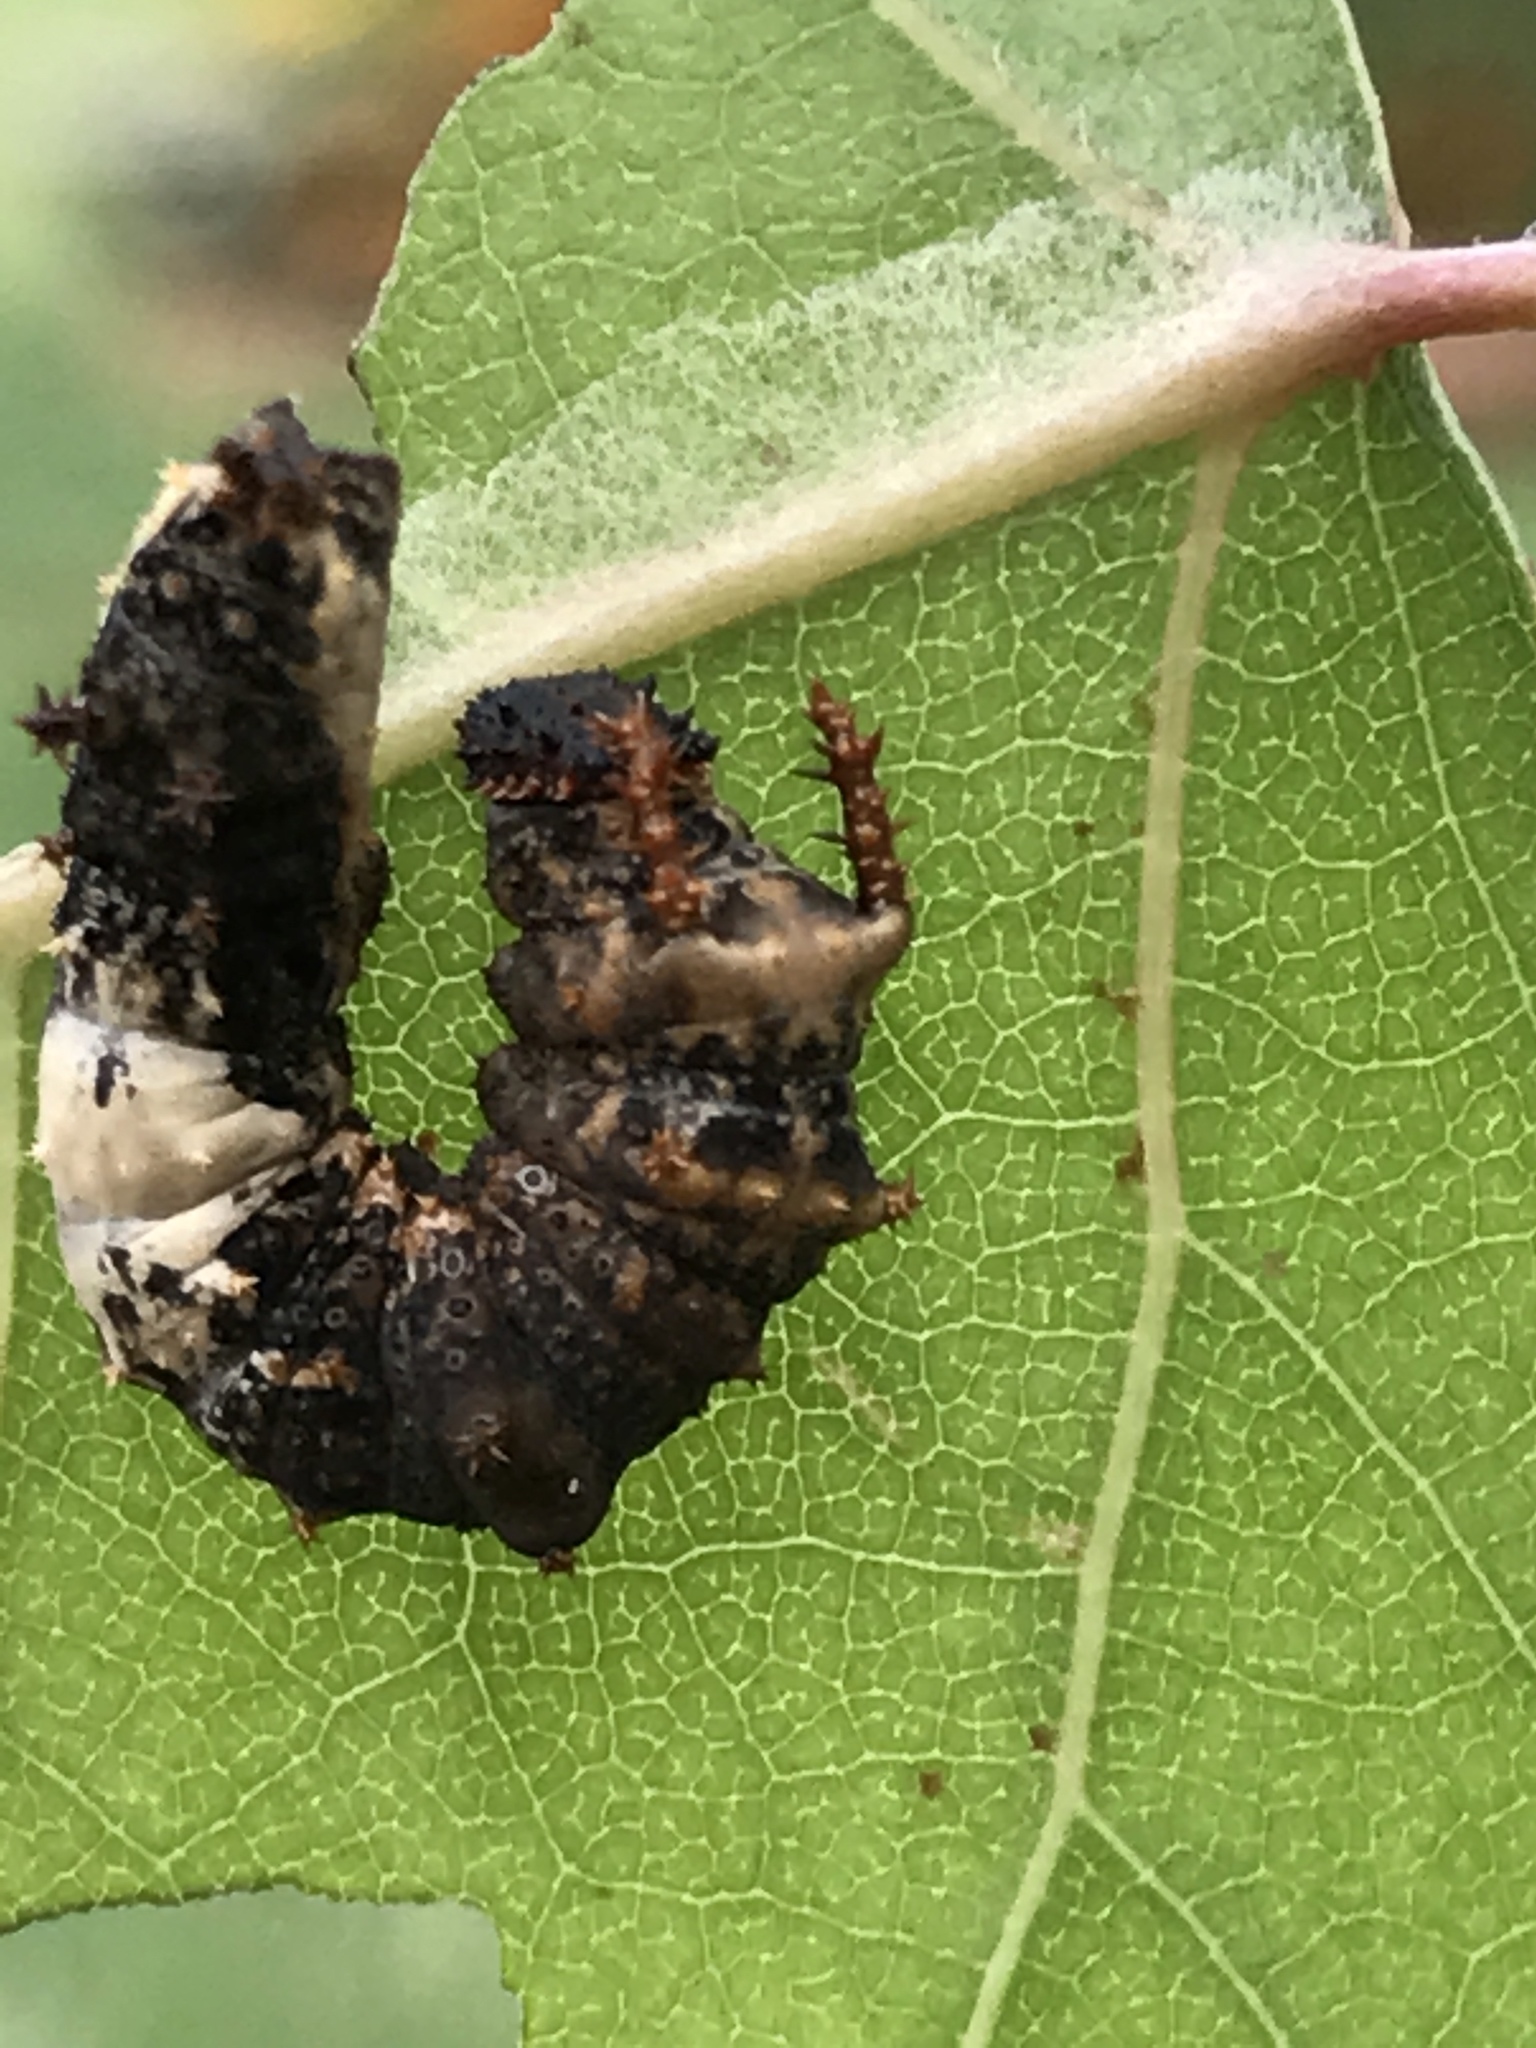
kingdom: Animalia
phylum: Arthropoda
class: Insecta
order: Lepidoptera
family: Nymphalidae
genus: Limenitis
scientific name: Limenitis archippus
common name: Viceroy
